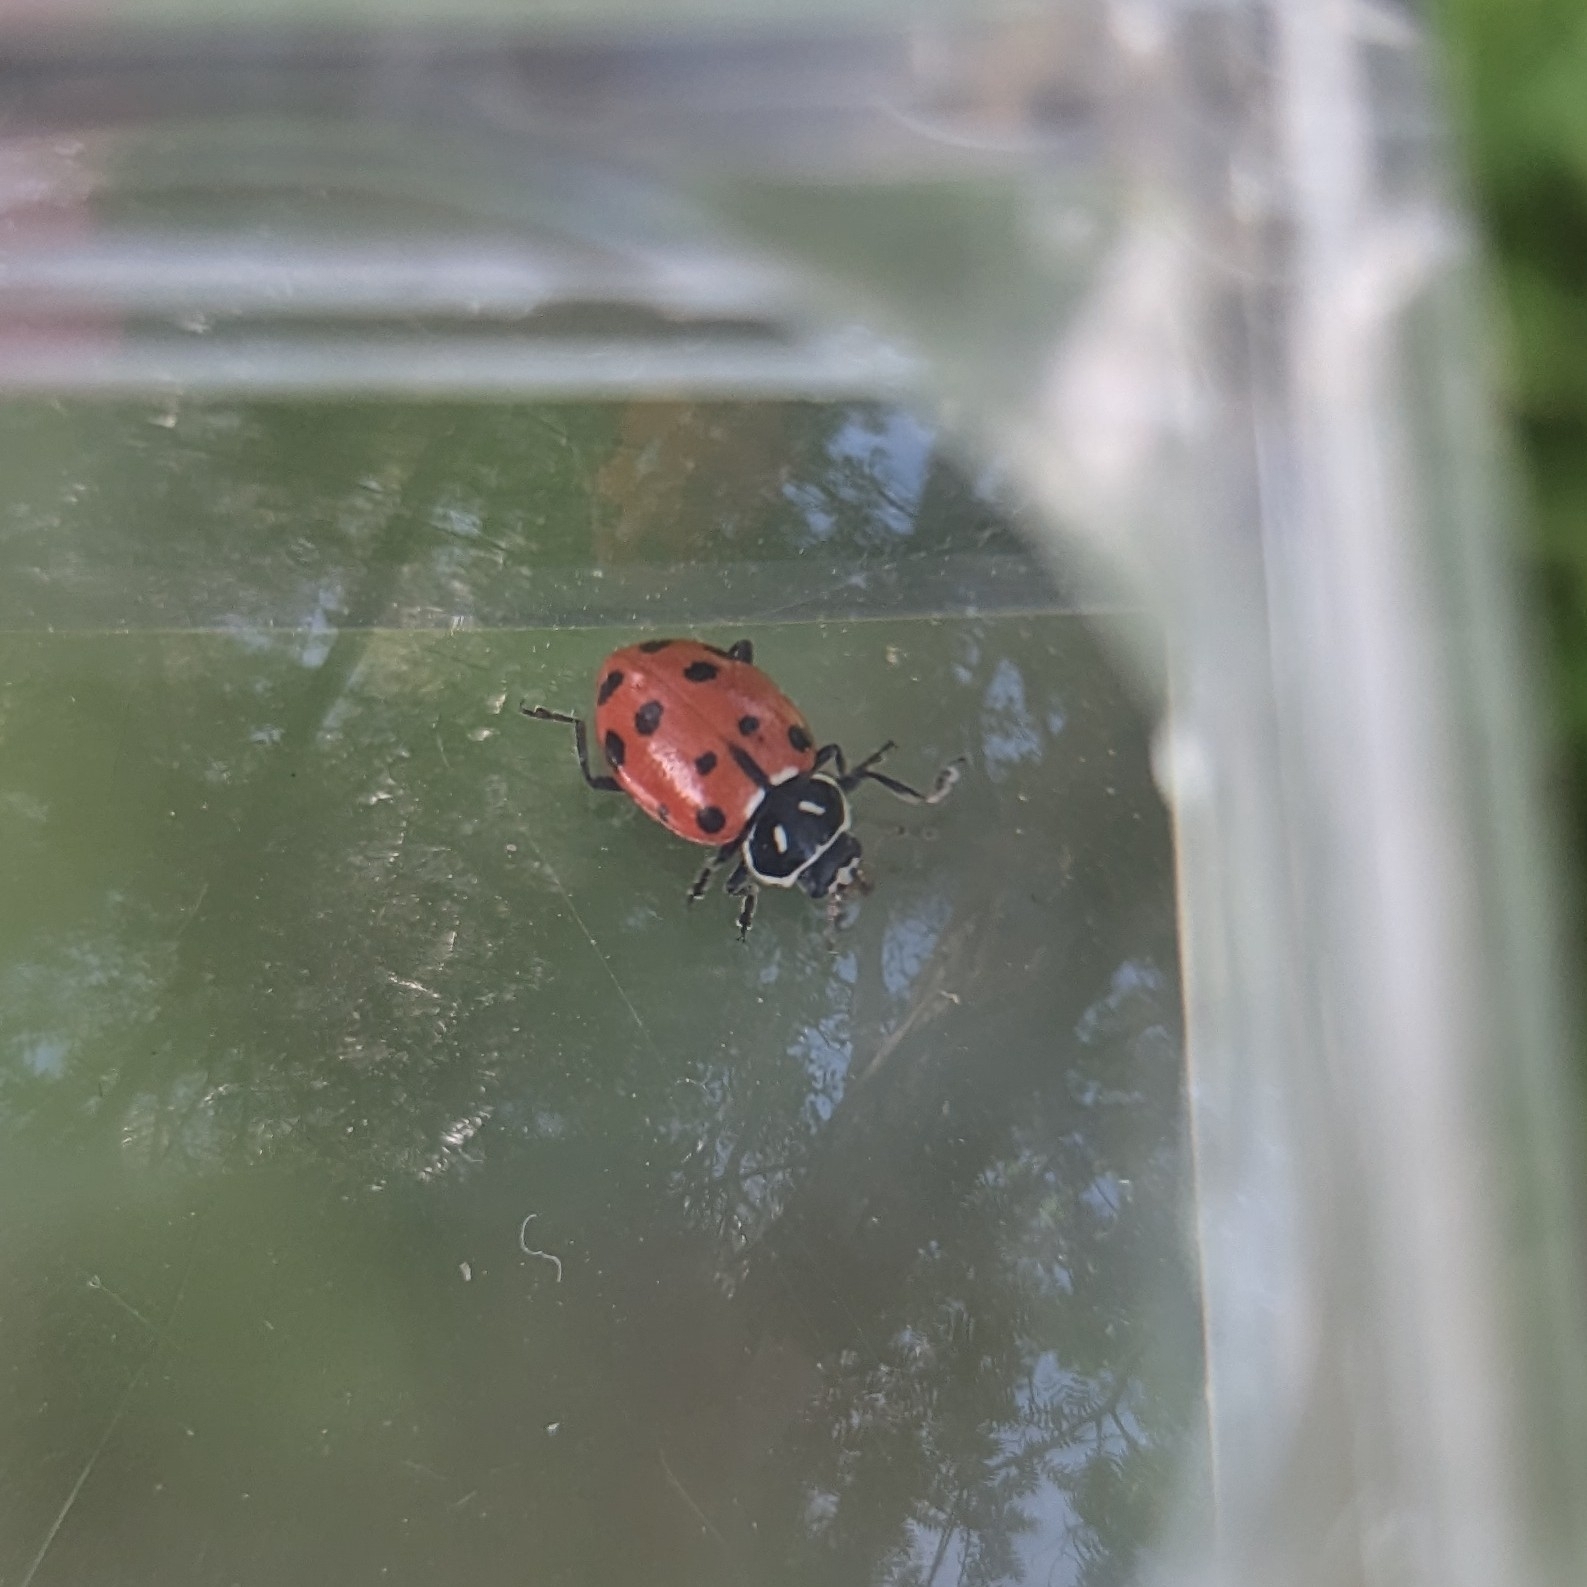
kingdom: Animalia
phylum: Arthropoda
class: Insecta
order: Coleoptera
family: Coccinellidae
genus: Hippodamia
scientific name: Hippodamia convergens
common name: Convergent lady beetle
